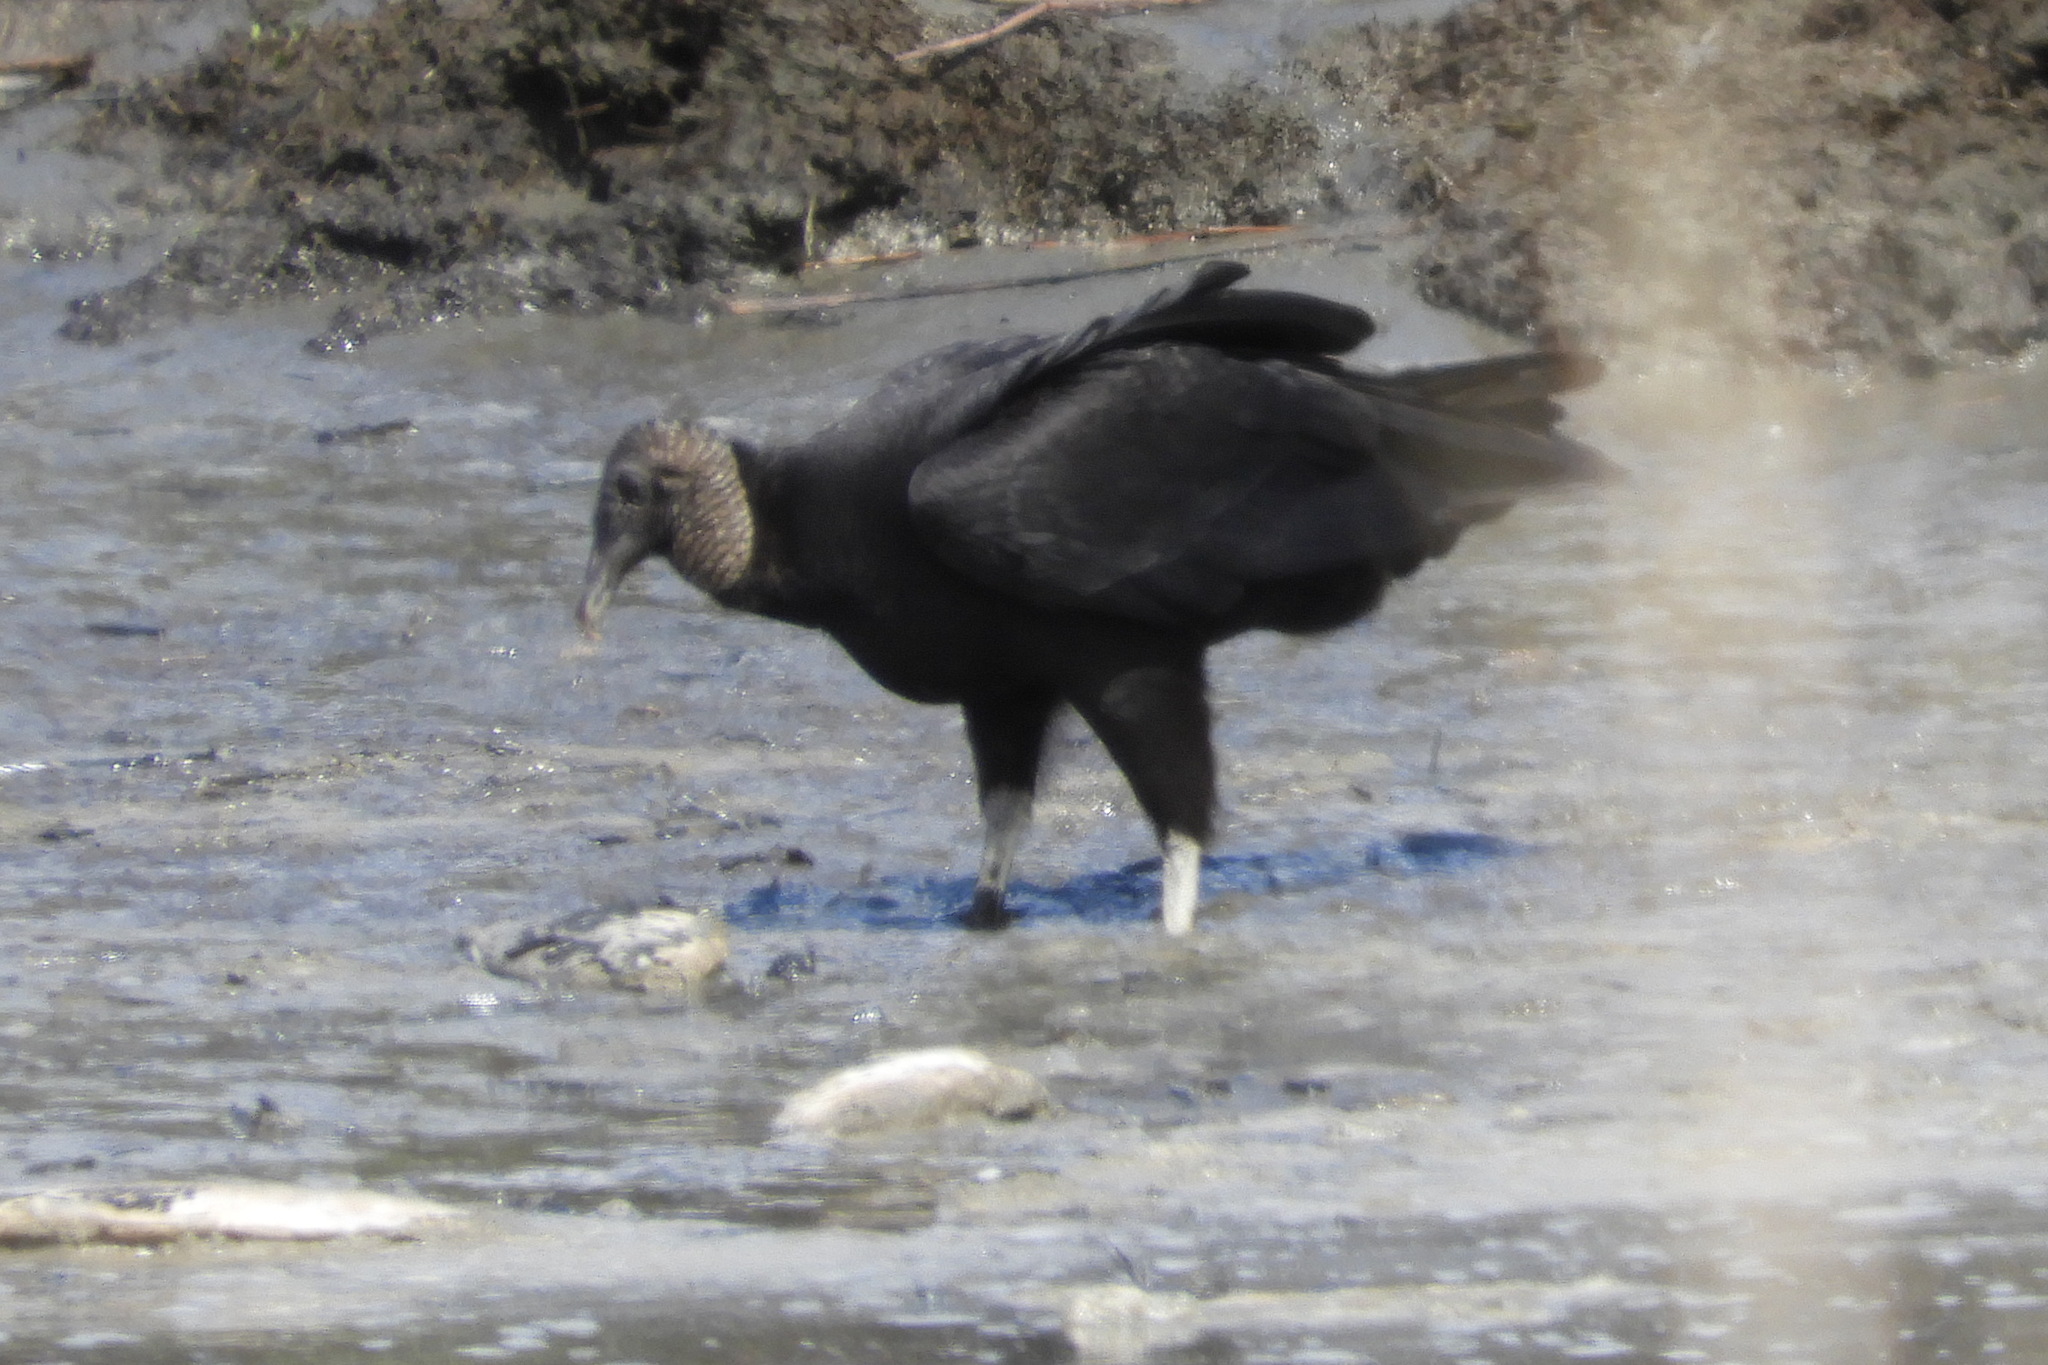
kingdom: Animalia
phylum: Chordata
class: Aves
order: Accipitriformes
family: Cathartidae
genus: Coragyps
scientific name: Coragyps atratus
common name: Black vulture
